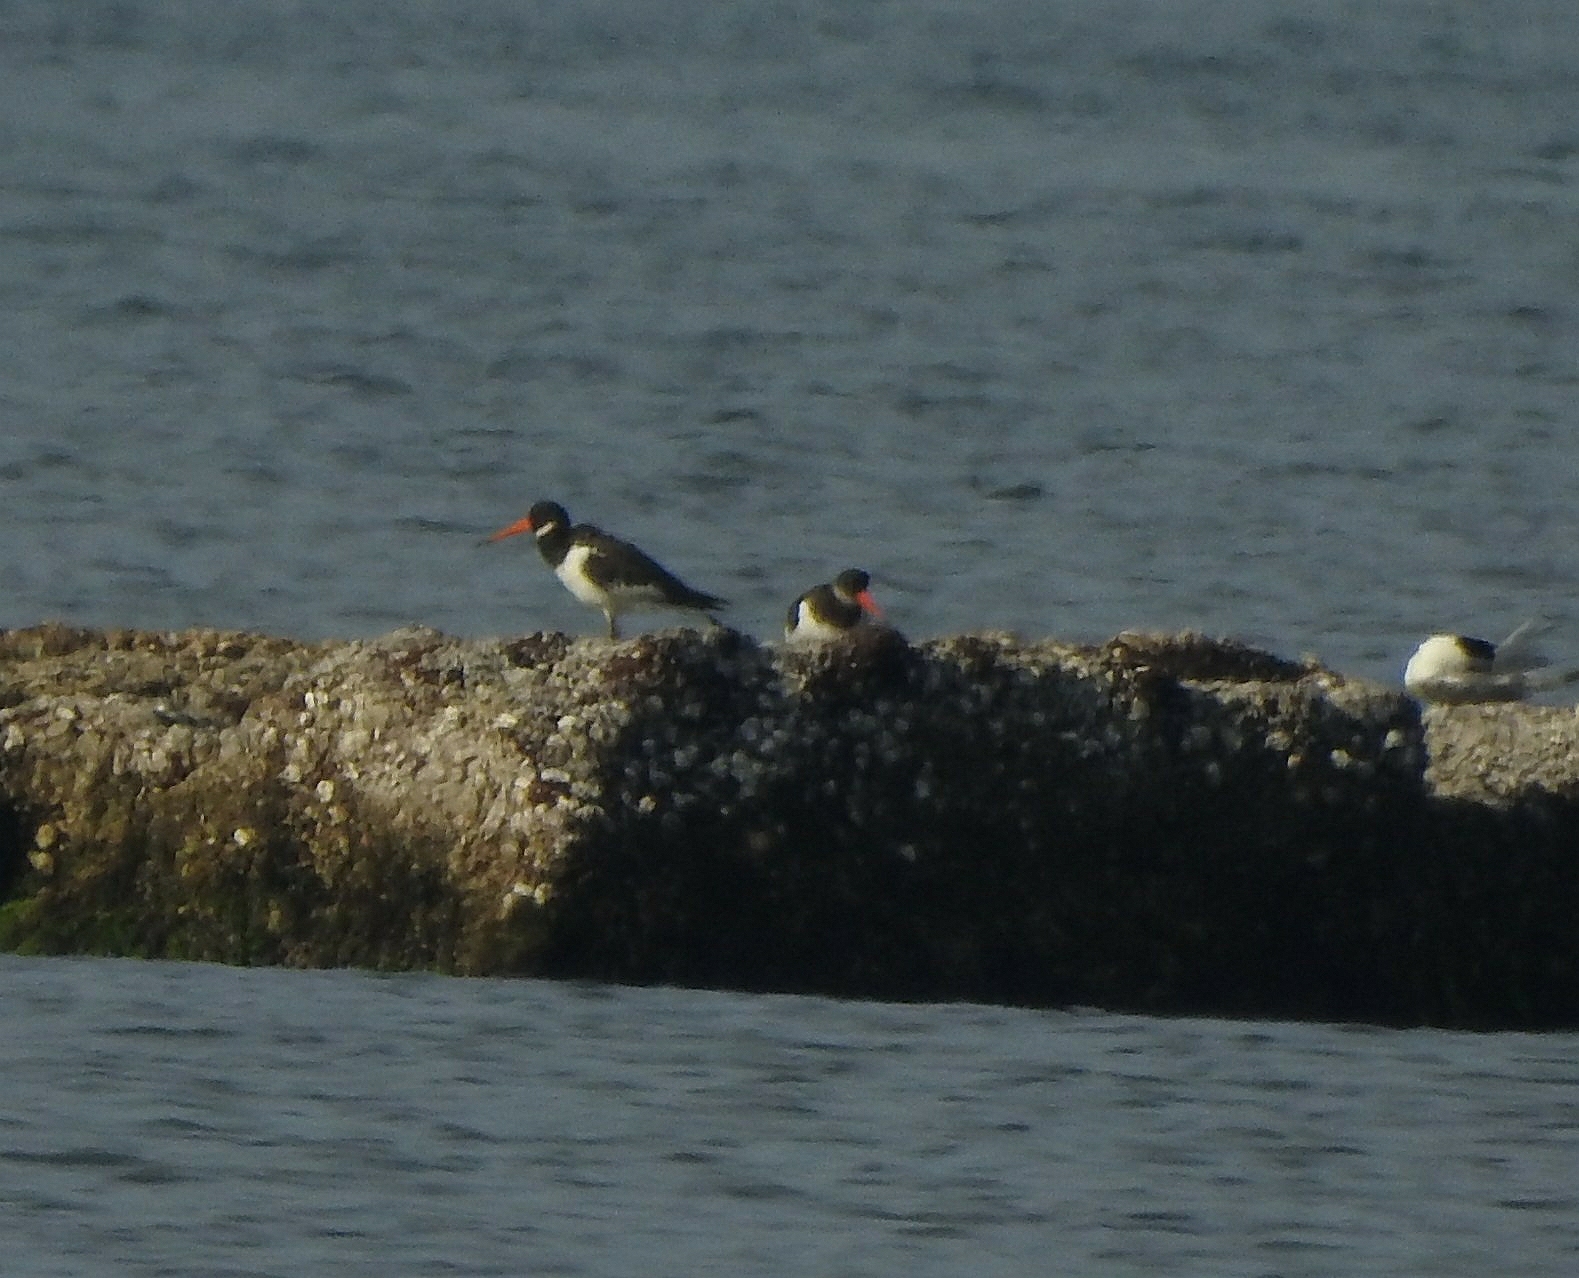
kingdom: Animalia
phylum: Chordata
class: Aves
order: Charadriiformes
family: Haematopodidae
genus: Haematopus
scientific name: Haematopus ostralegus
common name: Eurasian oystercatcher
